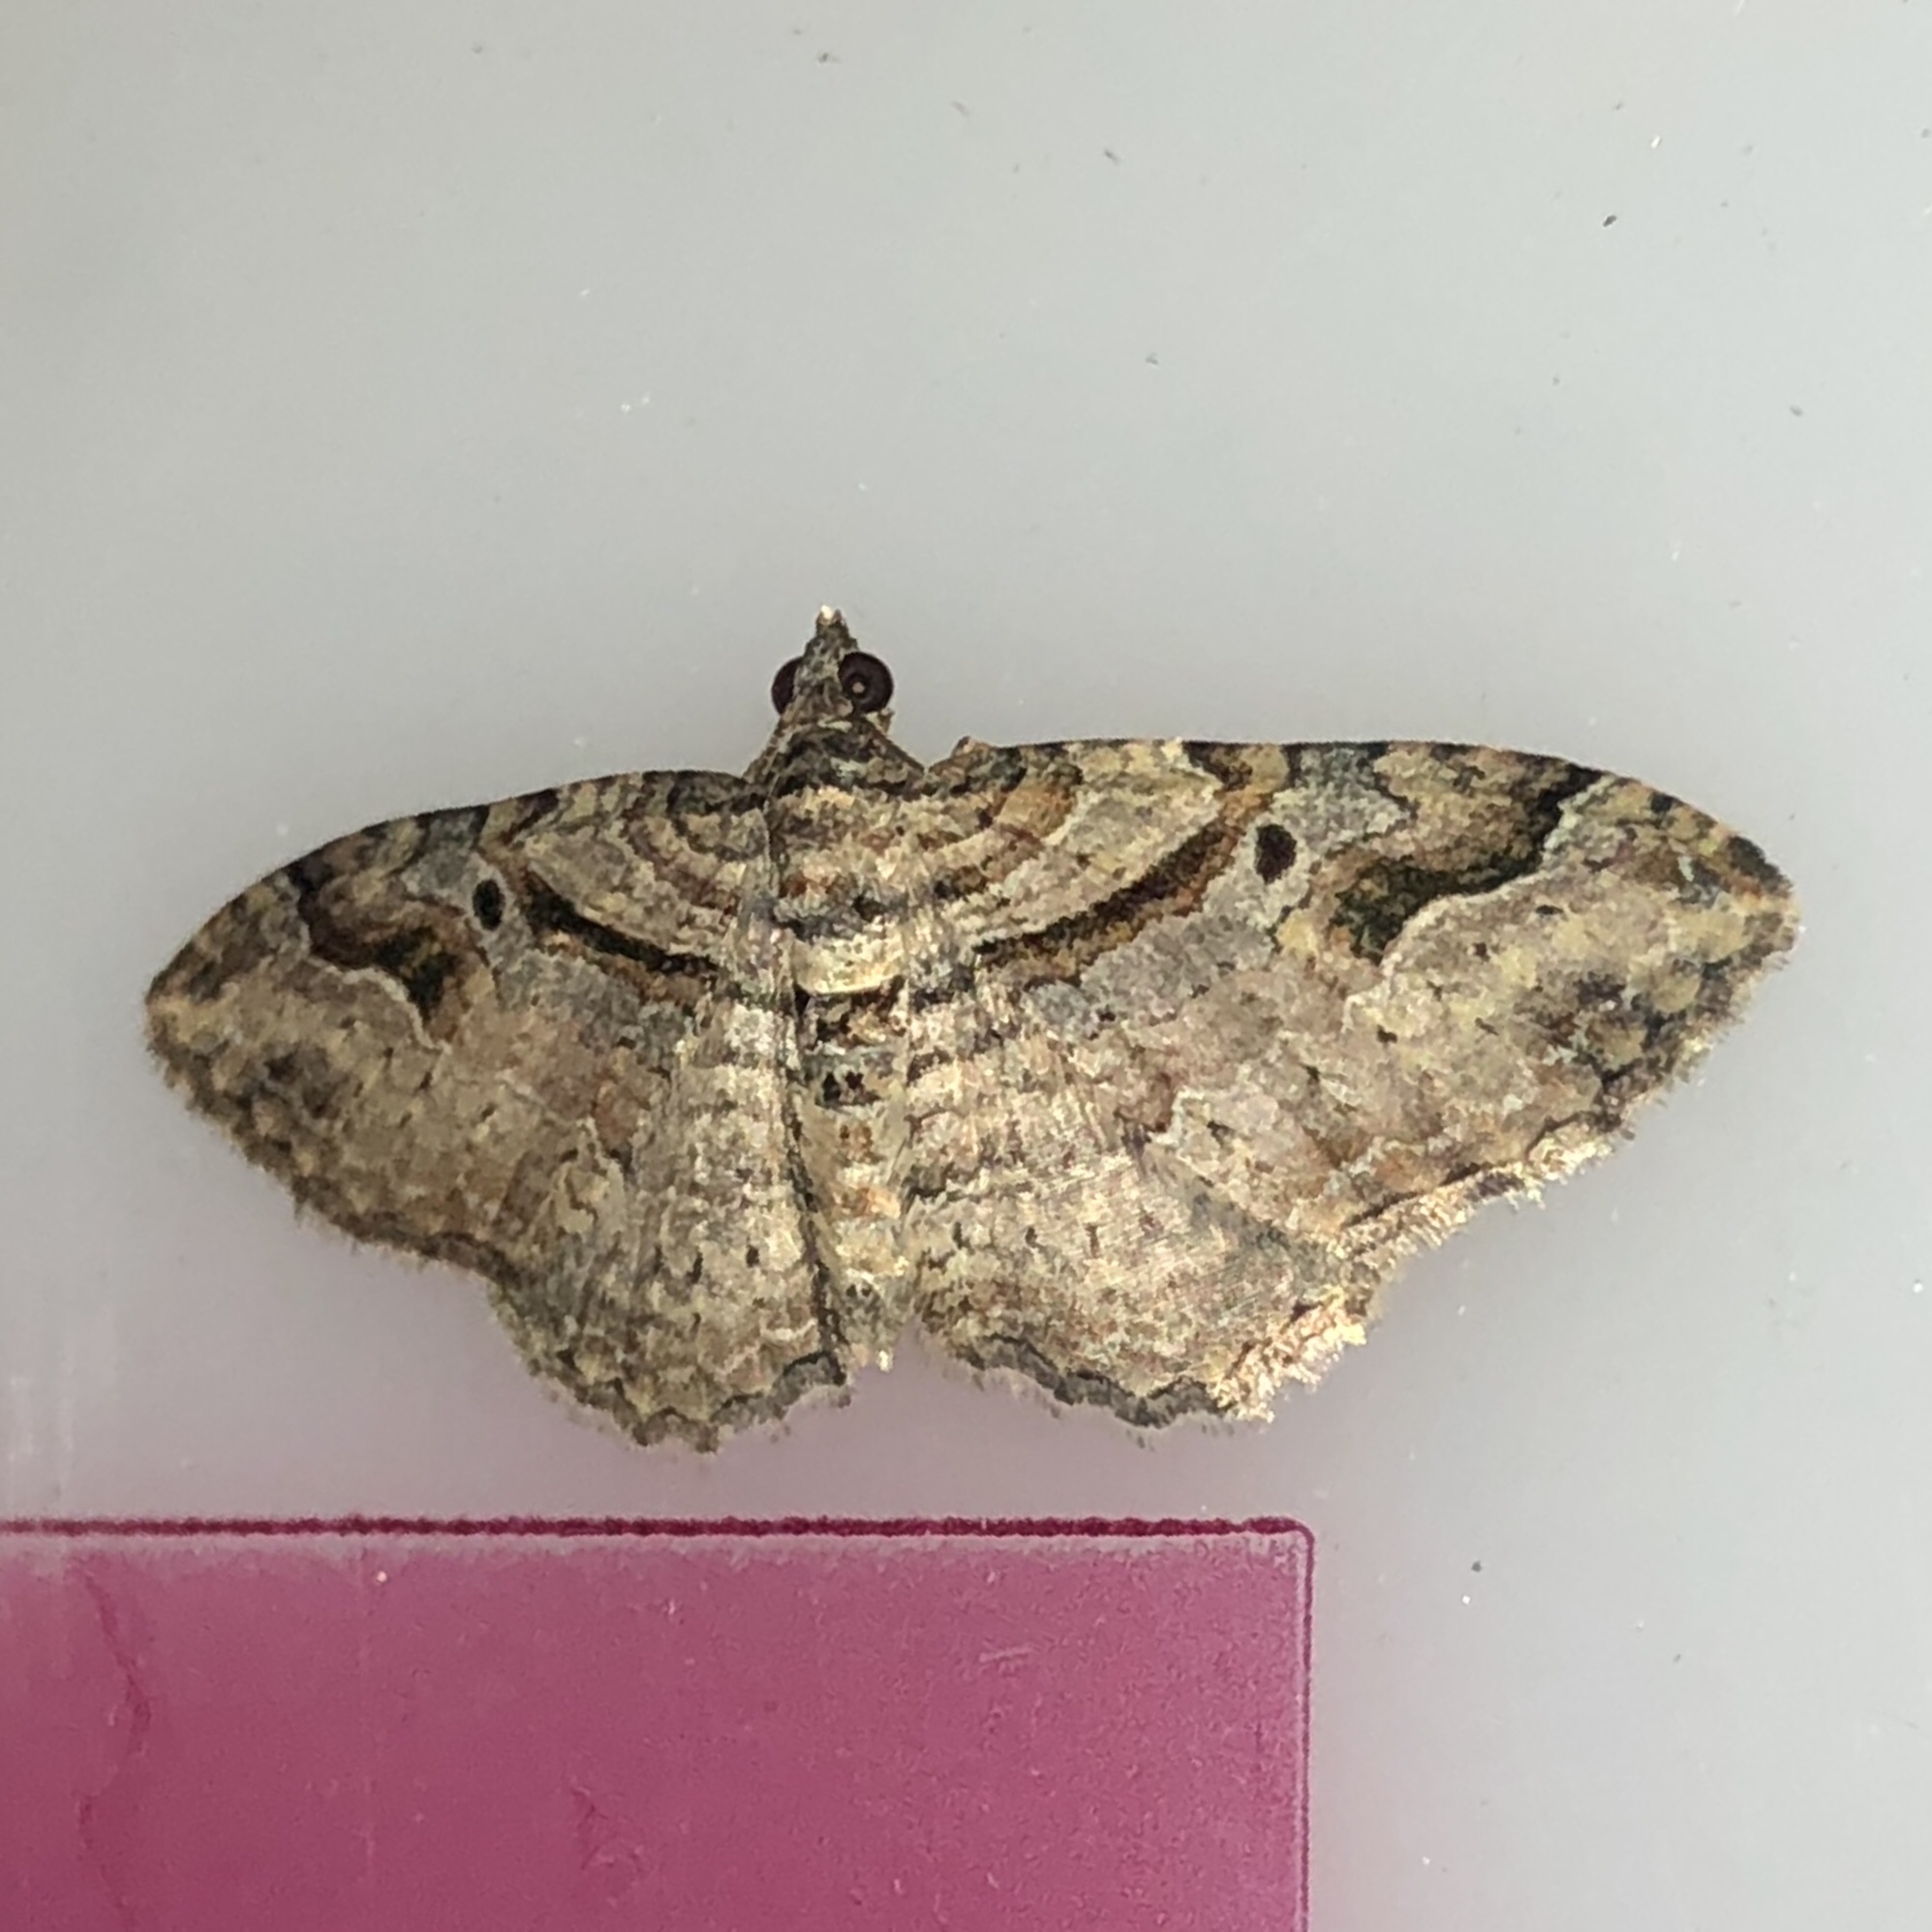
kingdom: Animalia
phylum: Arthropoda
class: Insecta
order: Lepidoptera
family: Geometridae
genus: Costaconvexa
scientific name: Costaconvexa centrostrigaria
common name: Bent-line carpet
